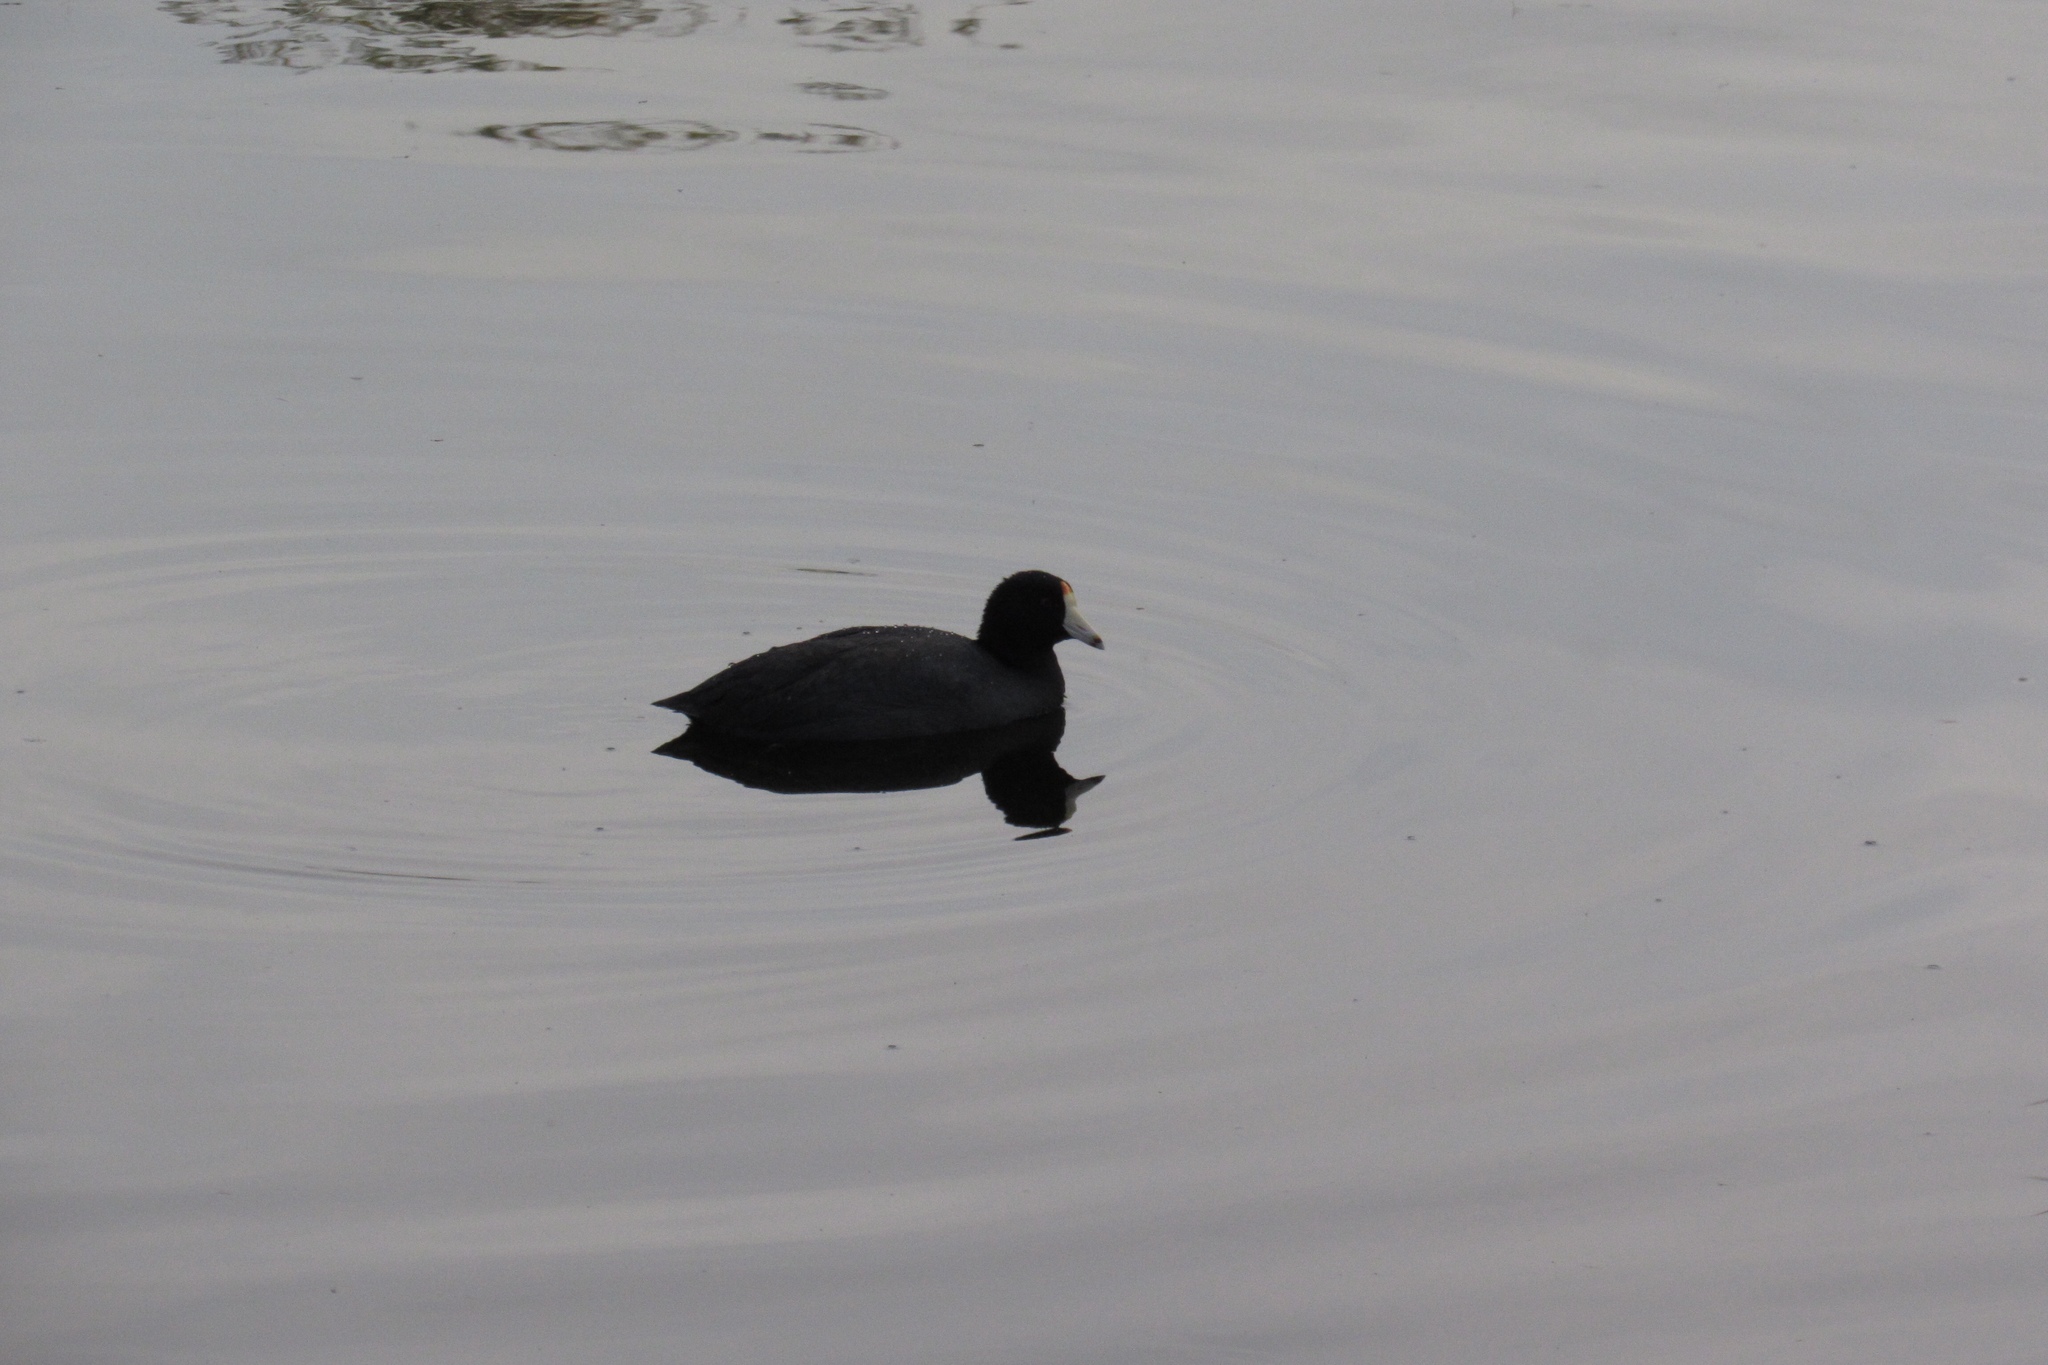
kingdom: Animalia
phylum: Chordata
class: Aves
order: Gruiformes
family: Rallidae
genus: Fulica
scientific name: Fulica americana
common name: American coot
